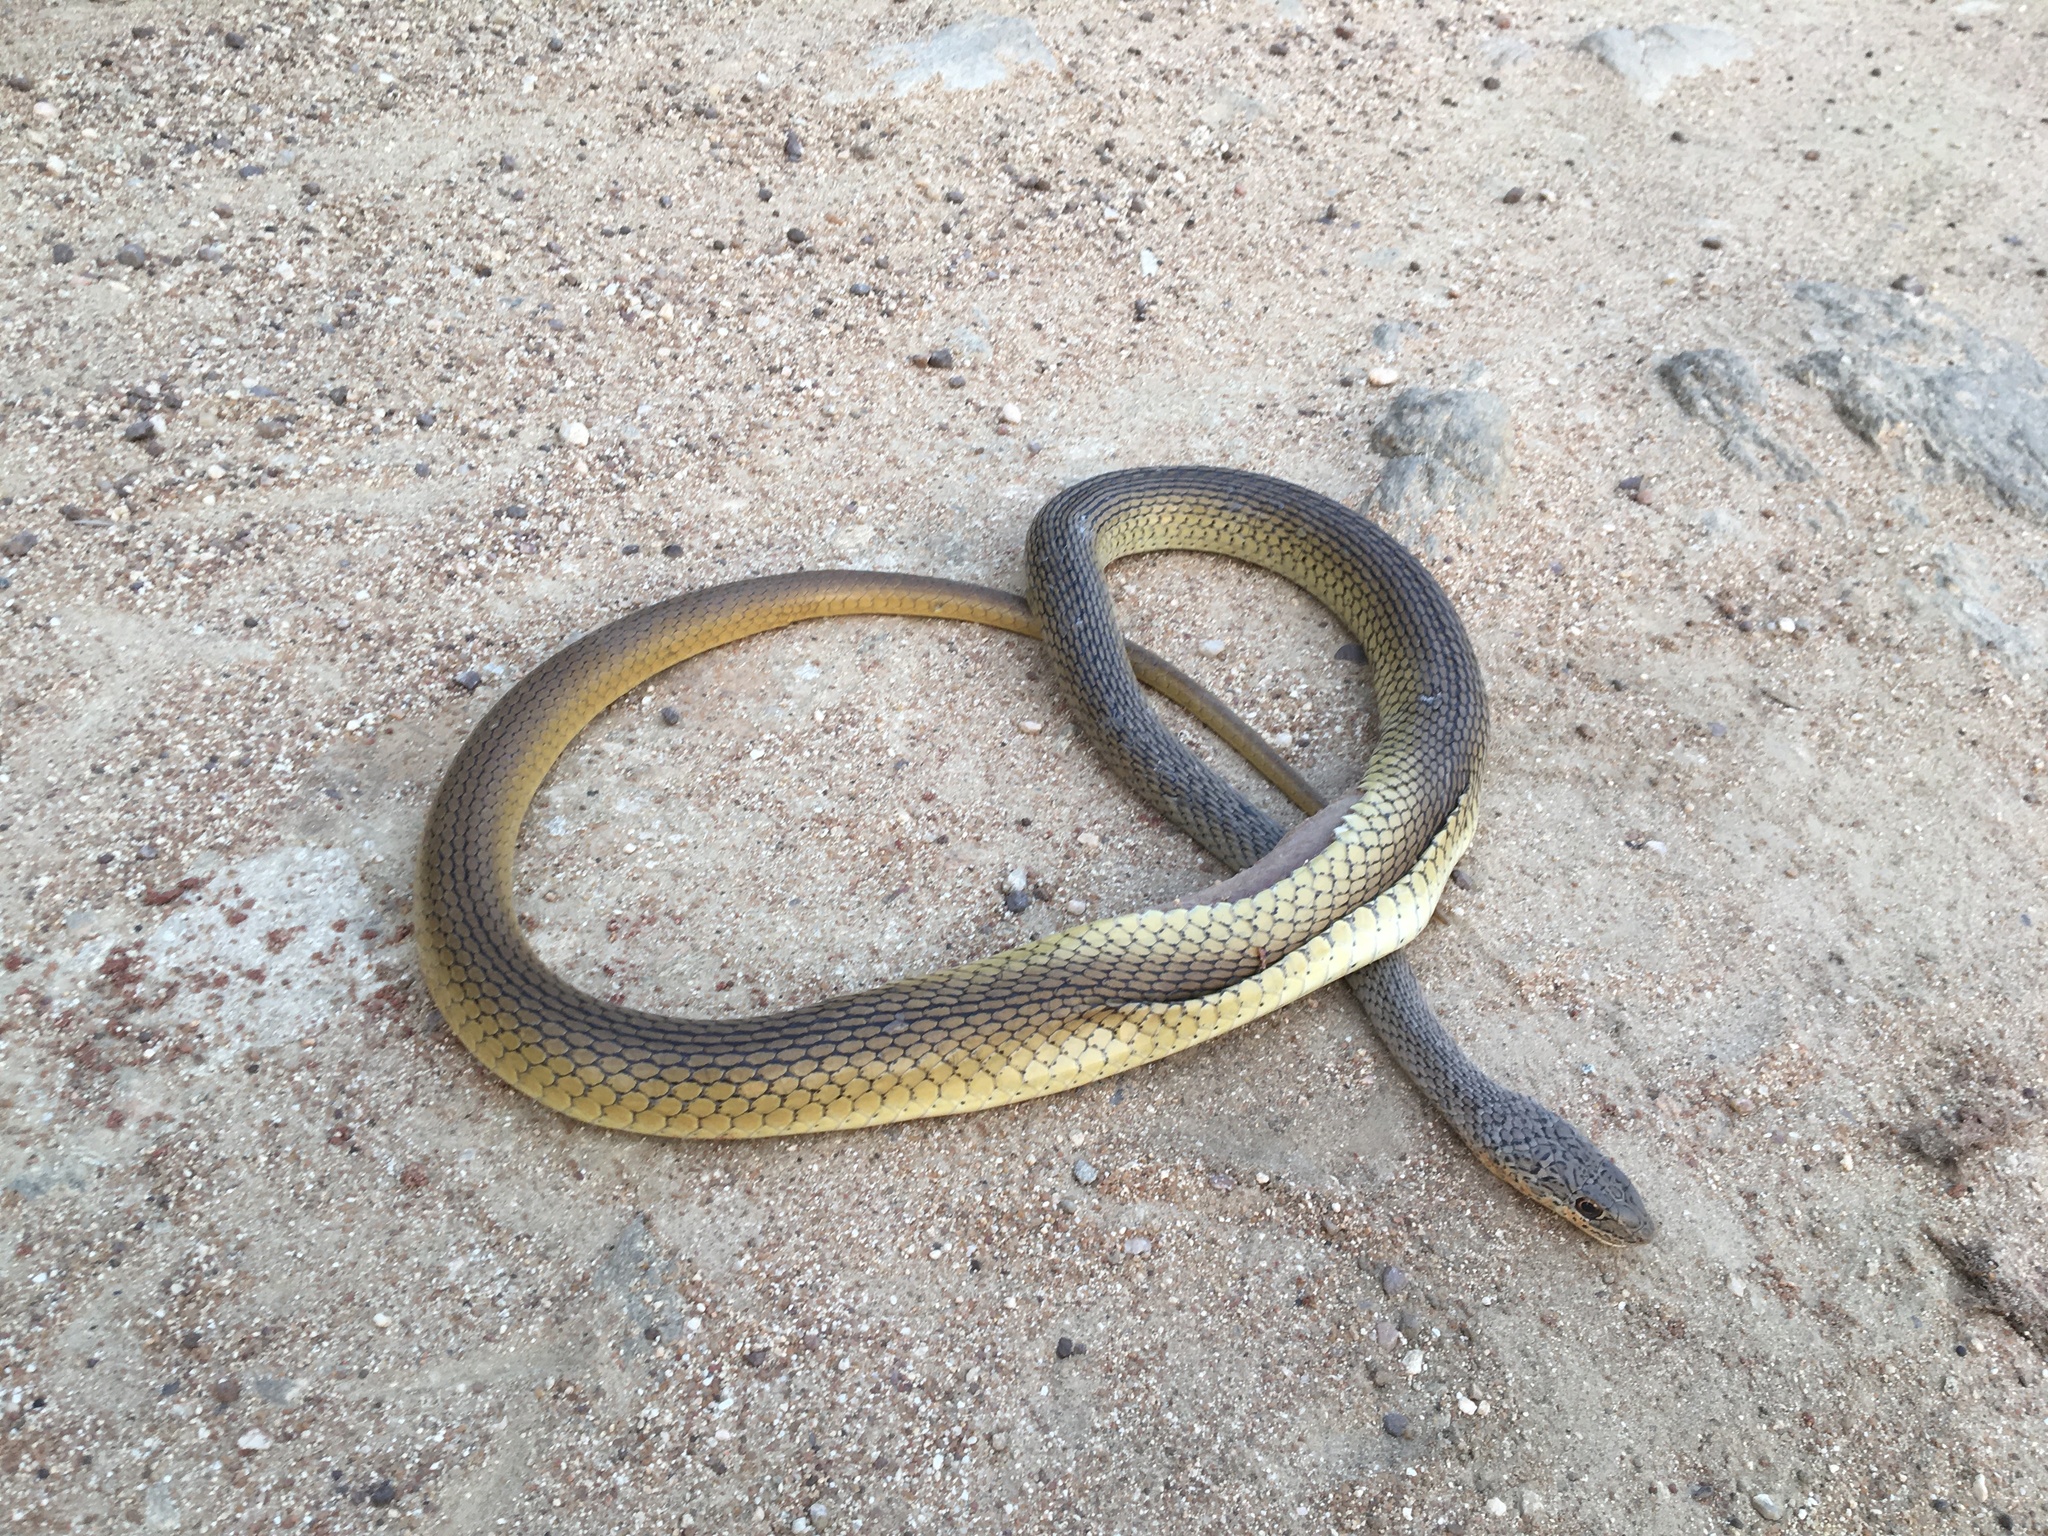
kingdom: Animalia
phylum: Chordata
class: Squamata
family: Psammophiidae
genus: Psammophis
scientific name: Psammophis phillipsii
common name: Olive grass racer
